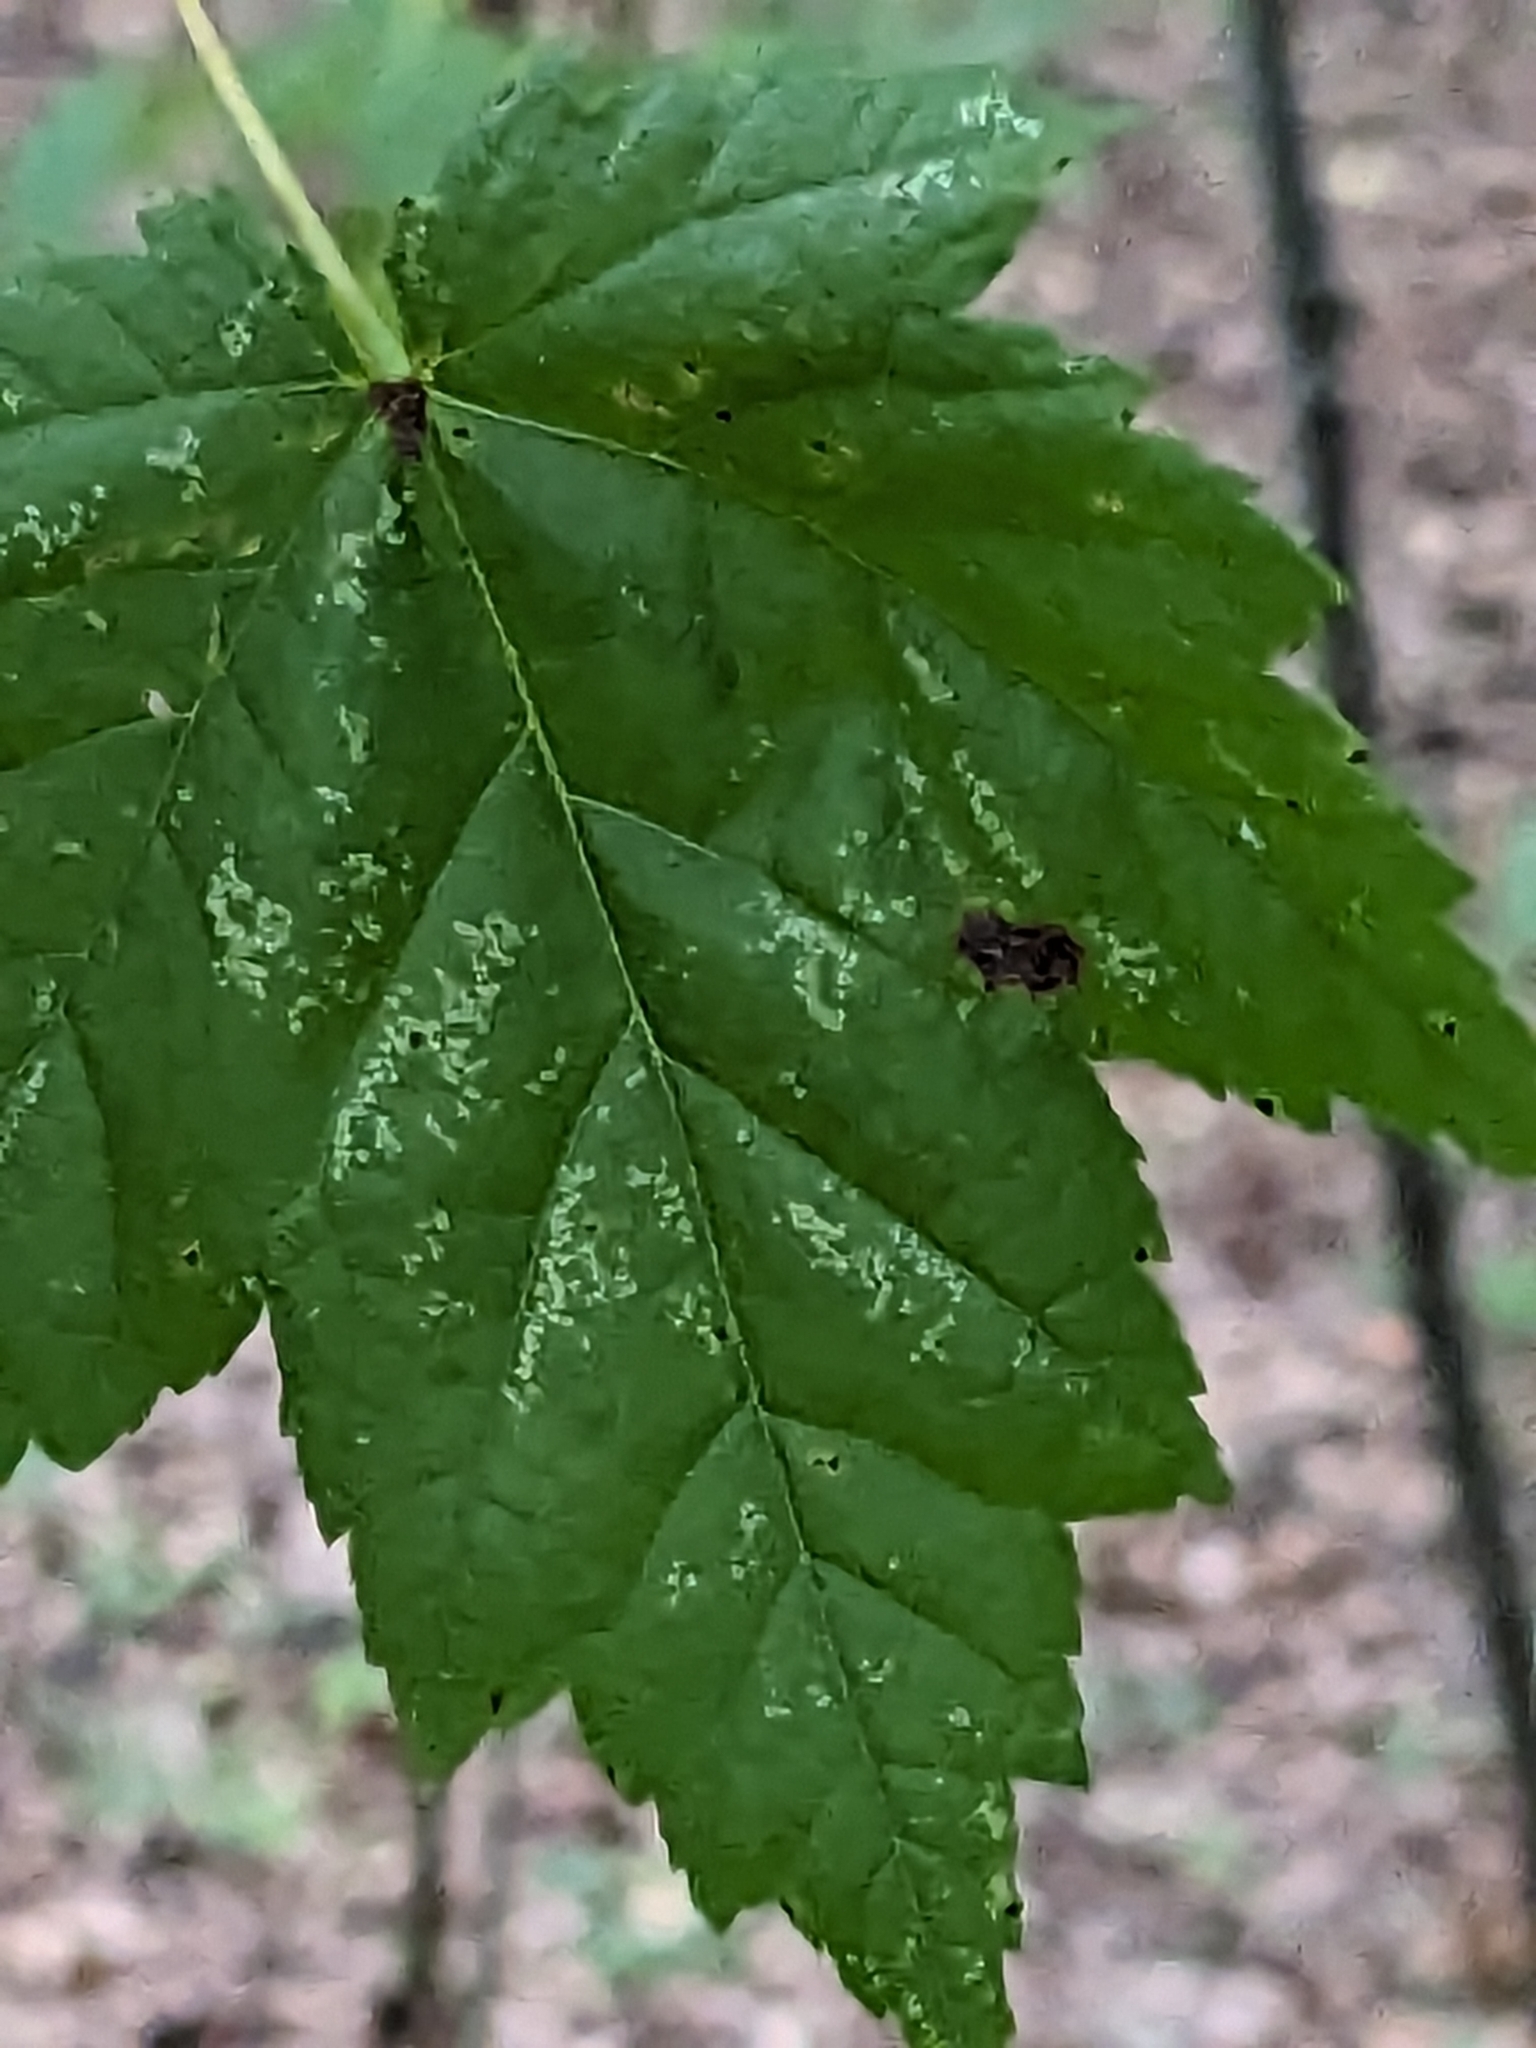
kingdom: Plantae
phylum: Tracheophyta
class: Magnoliopsida
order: Sapindales
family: Sapindaceae
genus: Acer
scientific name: Acer rubrum
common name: Red maple
